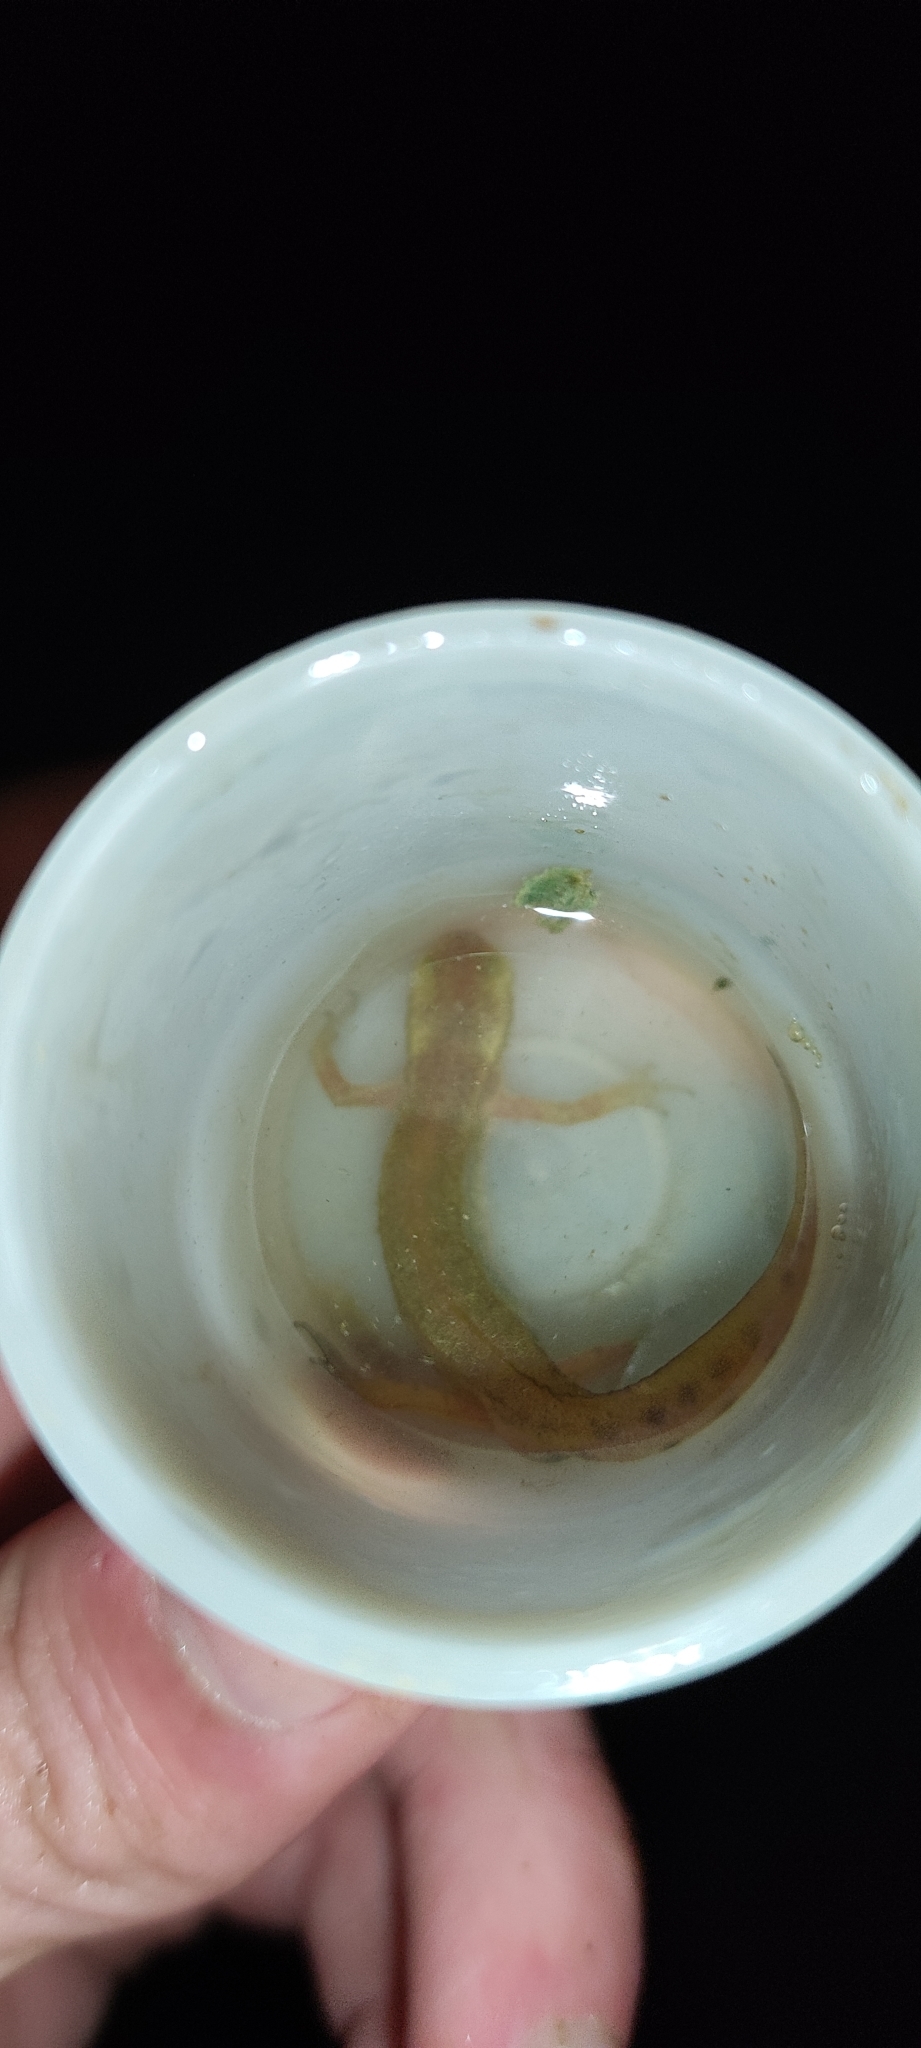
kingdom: Animalia
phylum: Chordata
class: Amphibia
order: Caudata
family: Salamandridae
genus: Lissotriton
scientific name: Lissotriton helveticus
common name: Palmate newt
